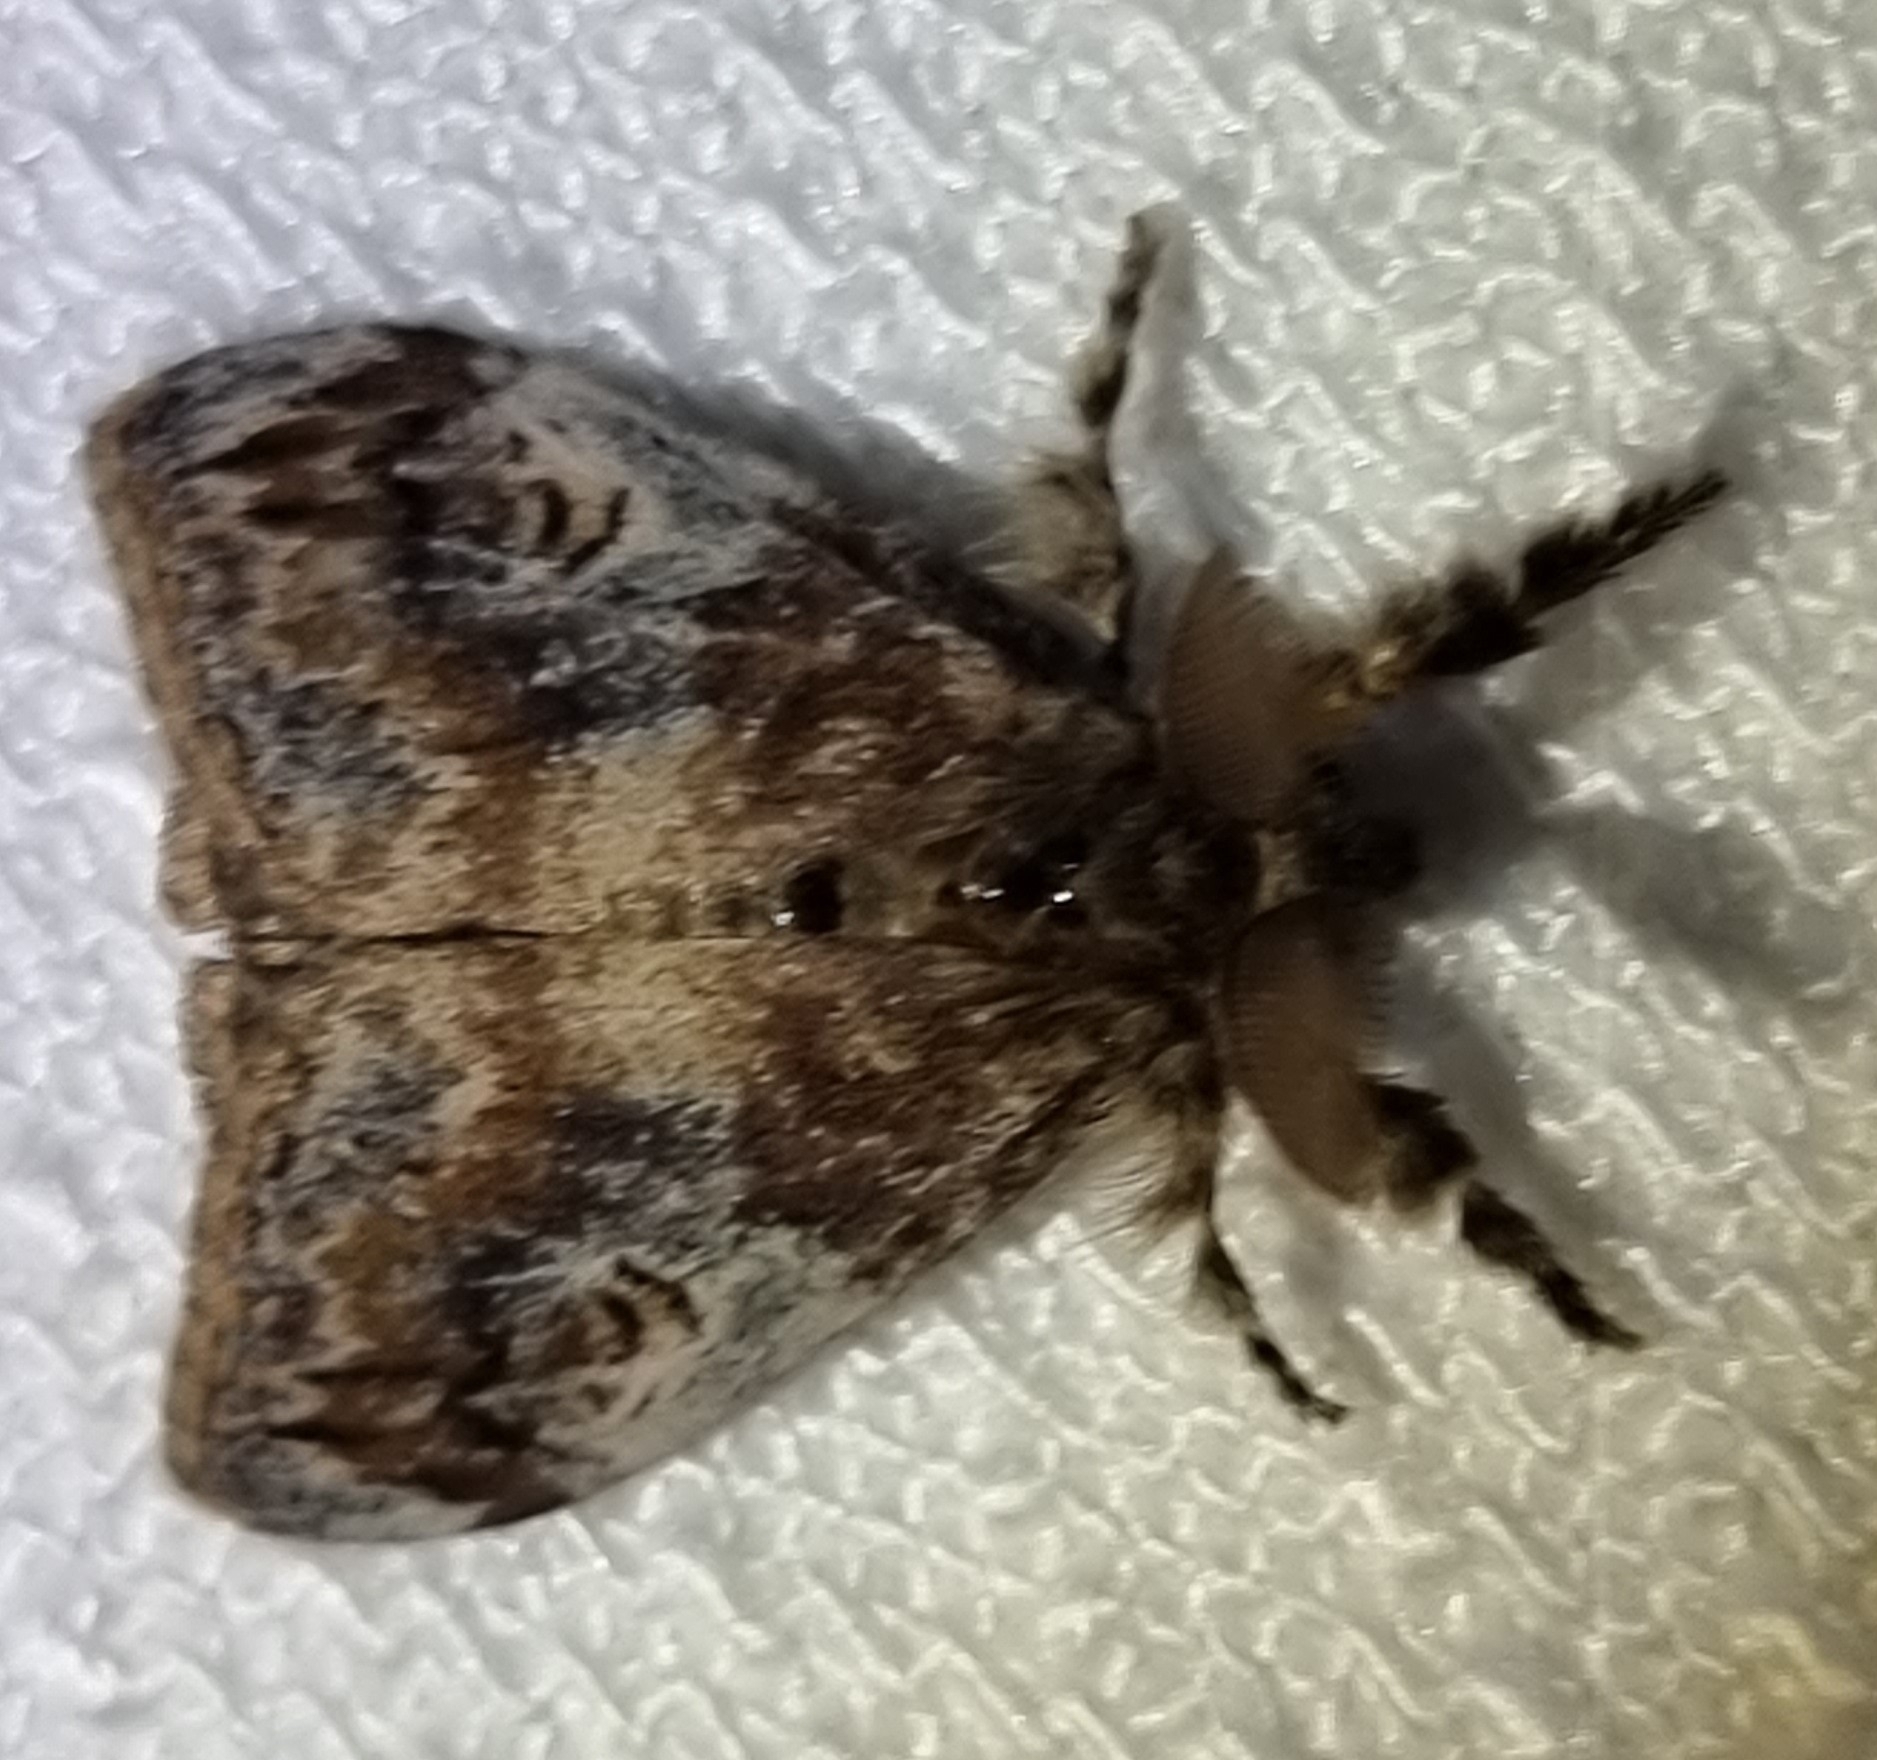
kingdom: Animalia
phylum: Arthropoda
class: Insecta
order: Lepidoptera
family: Erebidae
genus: Orgyia
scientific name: Orgyia australis
